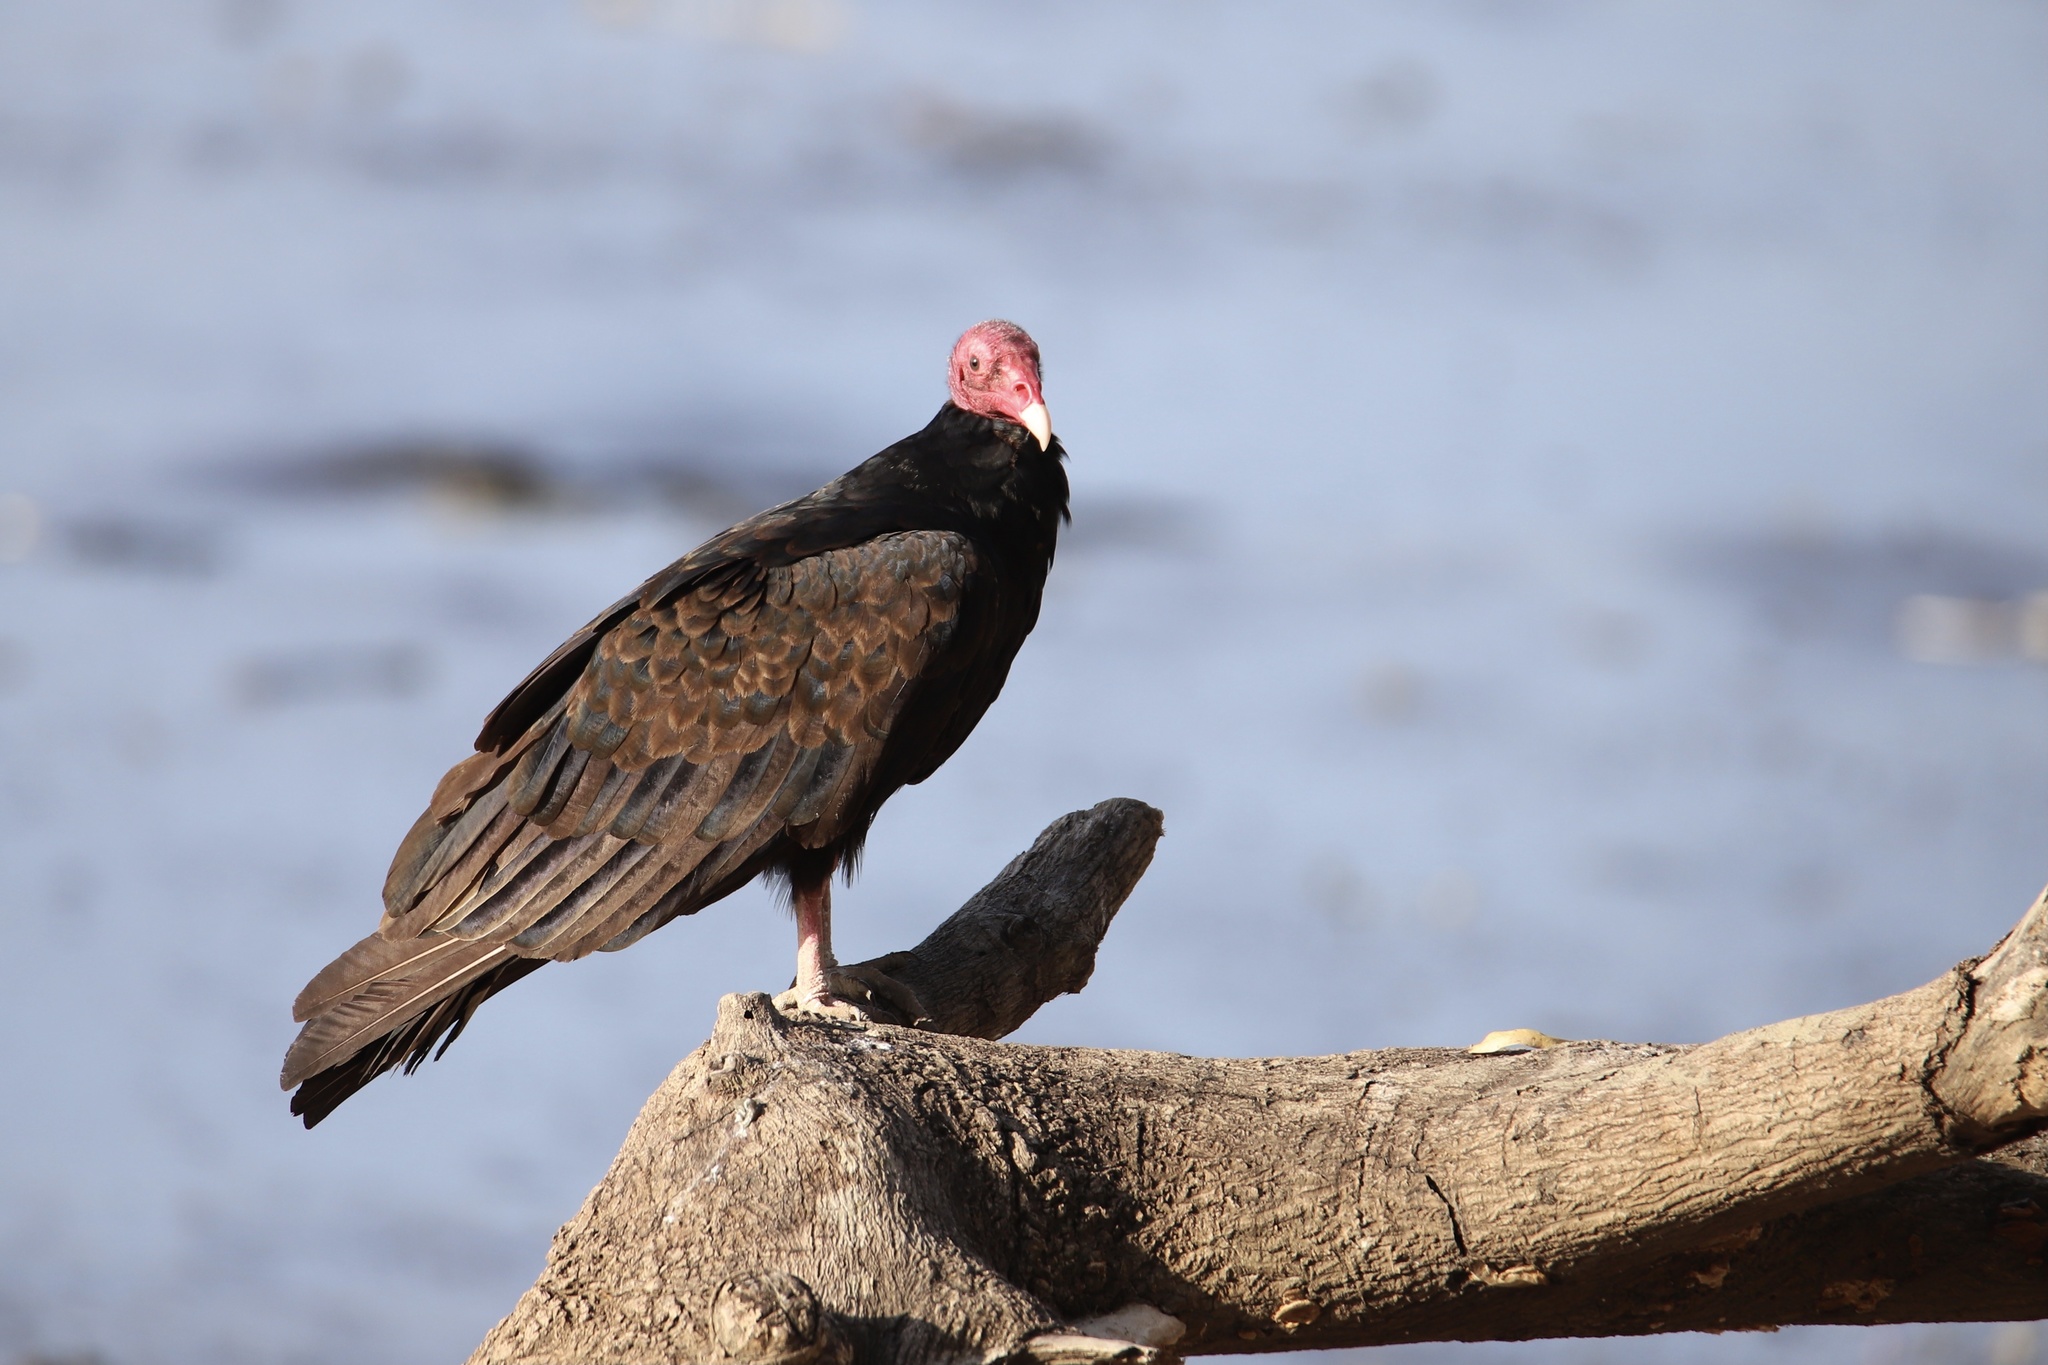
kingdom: Animalia
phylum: Chordata
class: Aves
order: Accipitriformes
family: Cathartidae
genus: Cathartes
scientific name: Cathartes aura
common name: Turkey vulture
